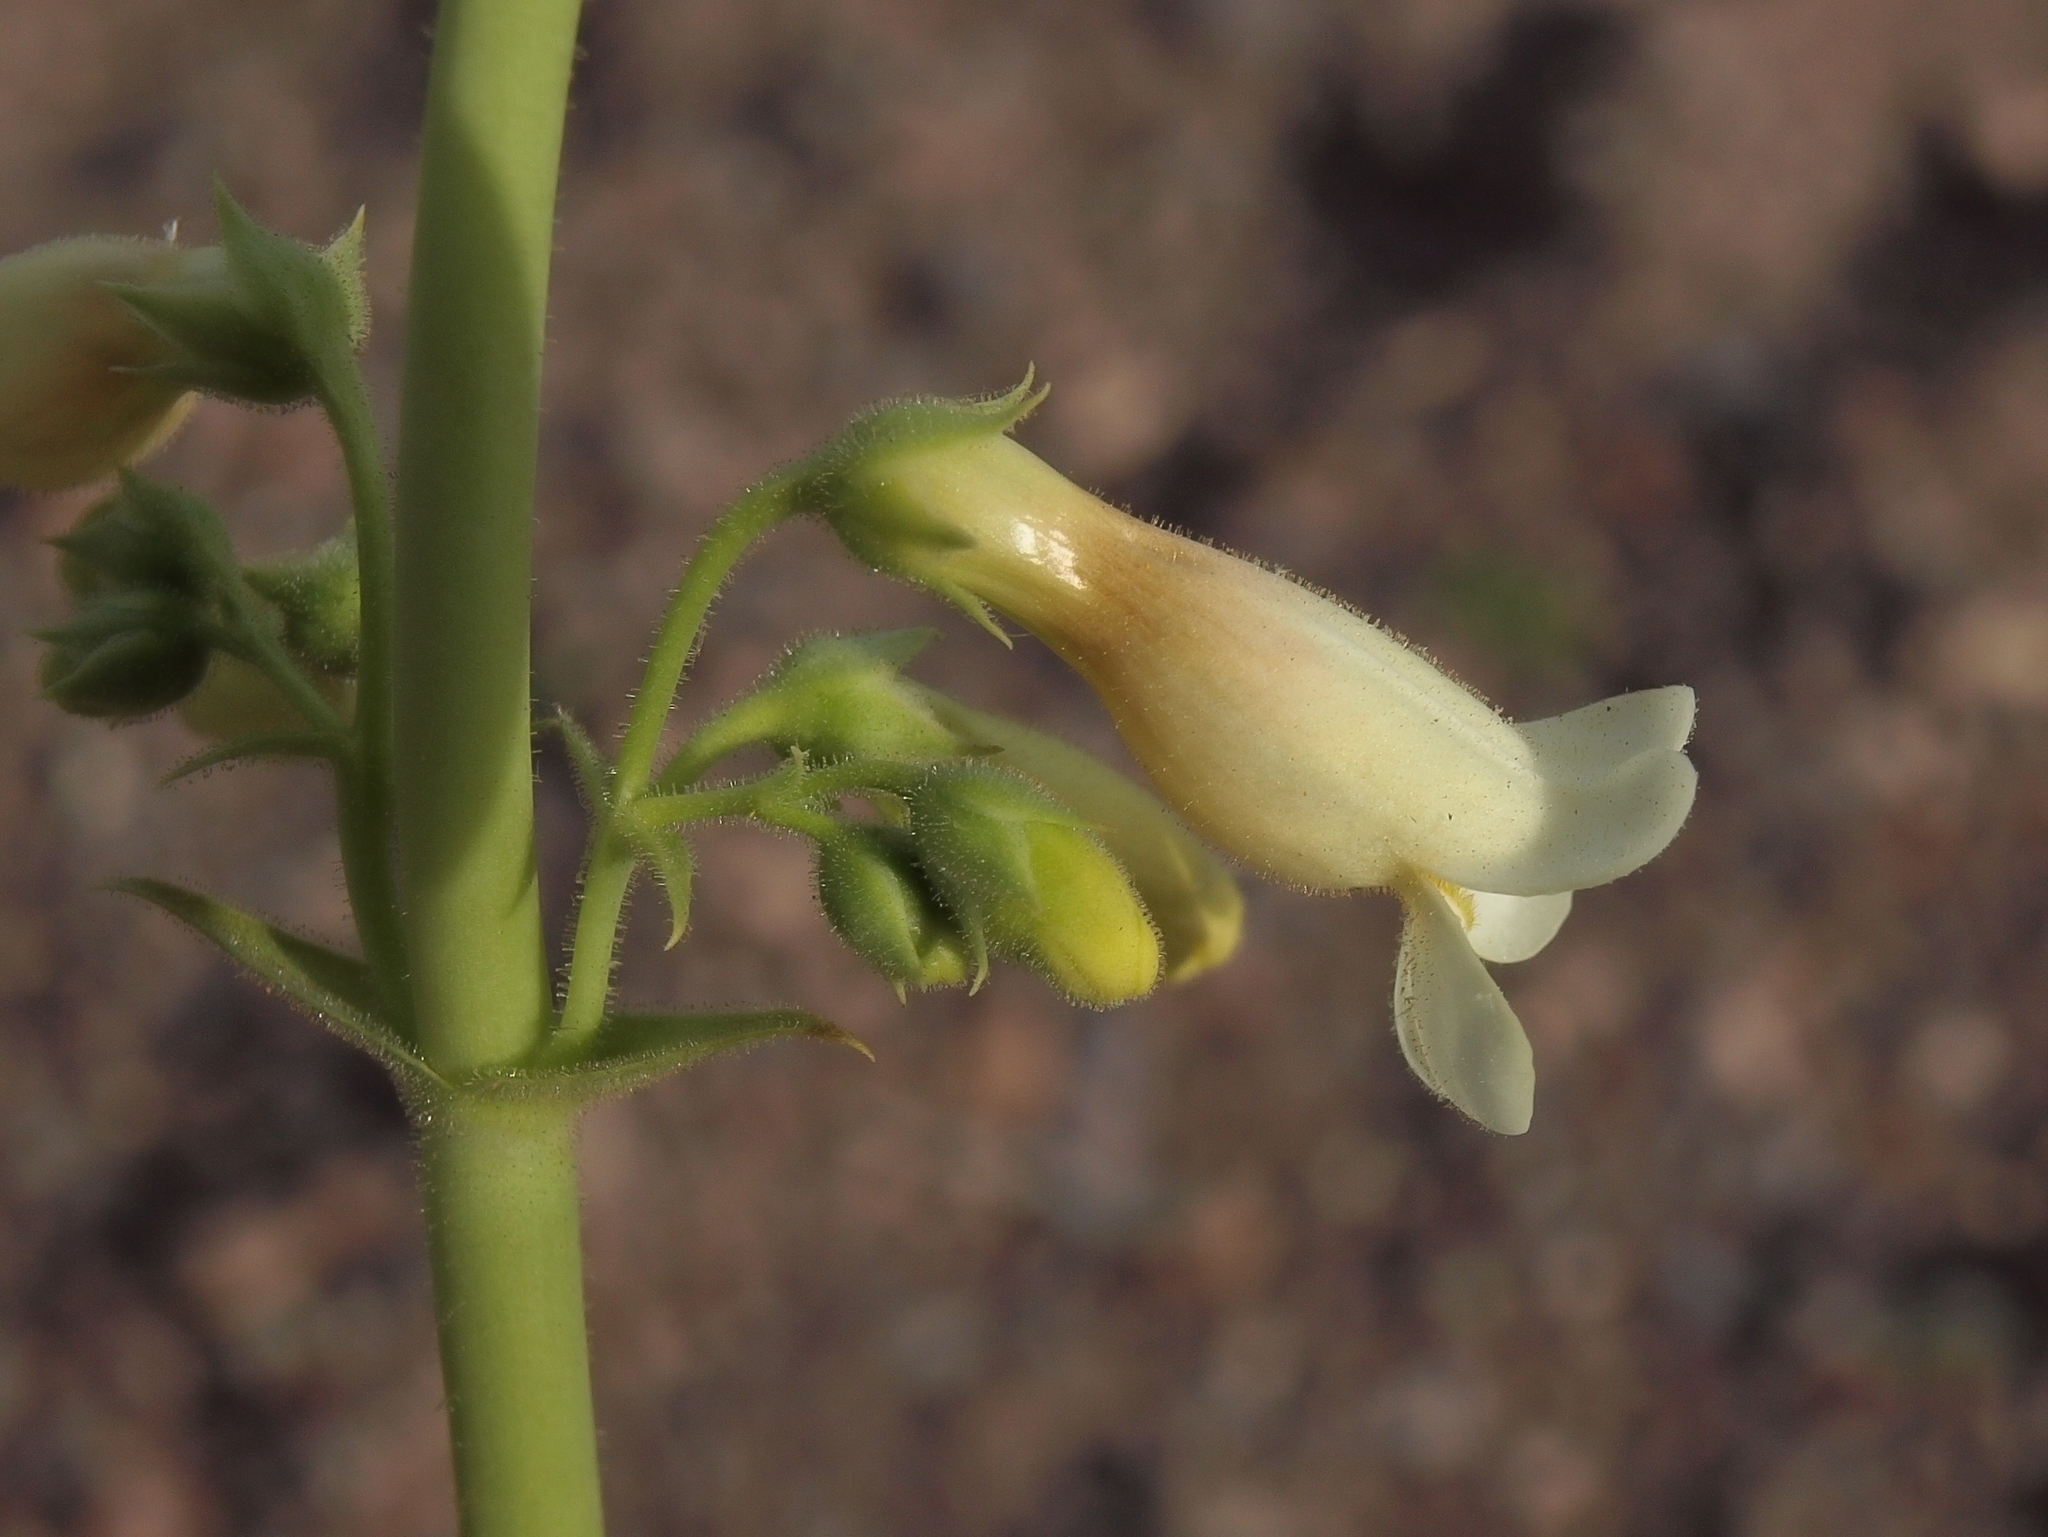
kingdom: Plantae
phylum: Tracheophyta
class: Magnoliopsida
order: Lamiales
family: Plantaginaceae
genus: Penstemon
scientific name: Penstemon bicolor
